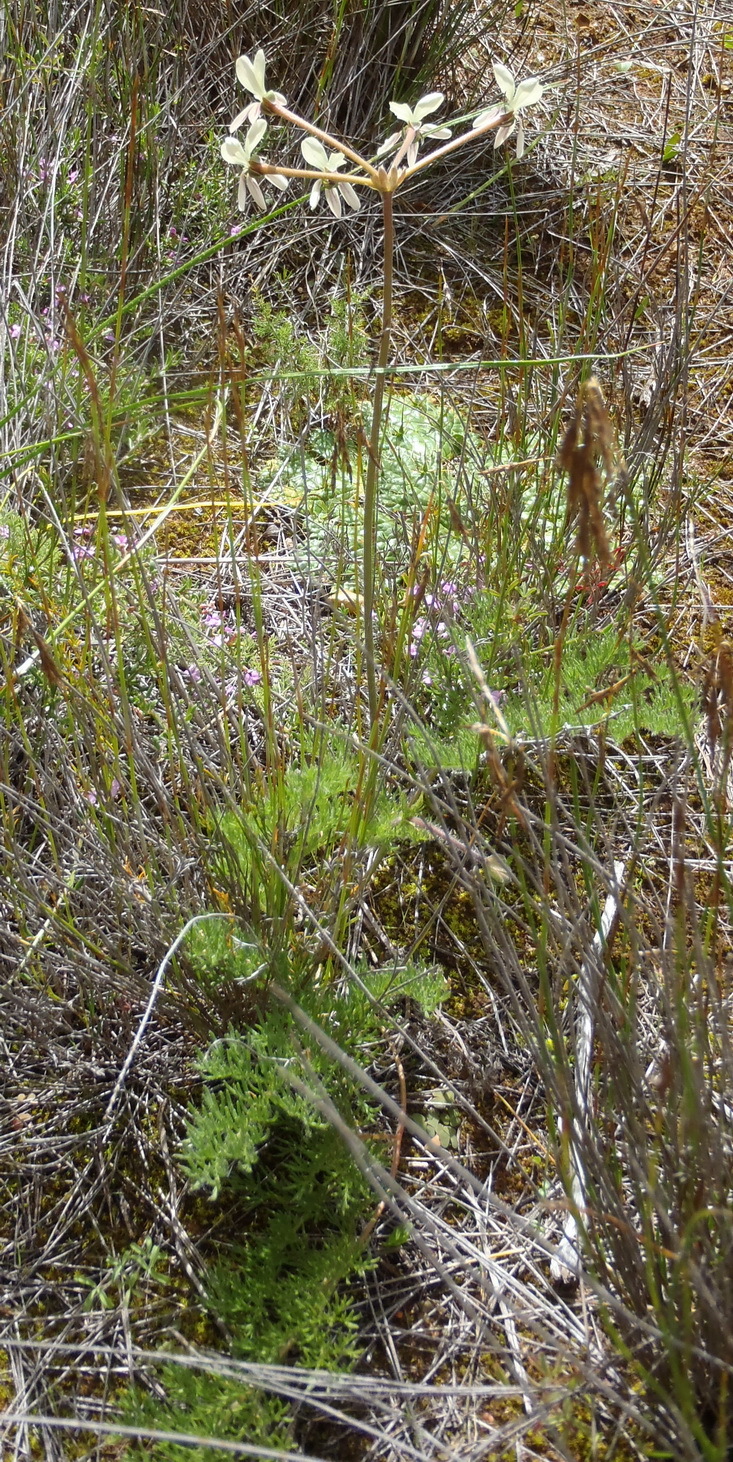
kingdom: Plantae
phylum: Tracheophyta
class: Magnoliopsida
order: Geraniales
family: Geraniaceae
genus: Pelargonium
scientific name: Pelargonium triste
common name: Night-scent pelargonium
